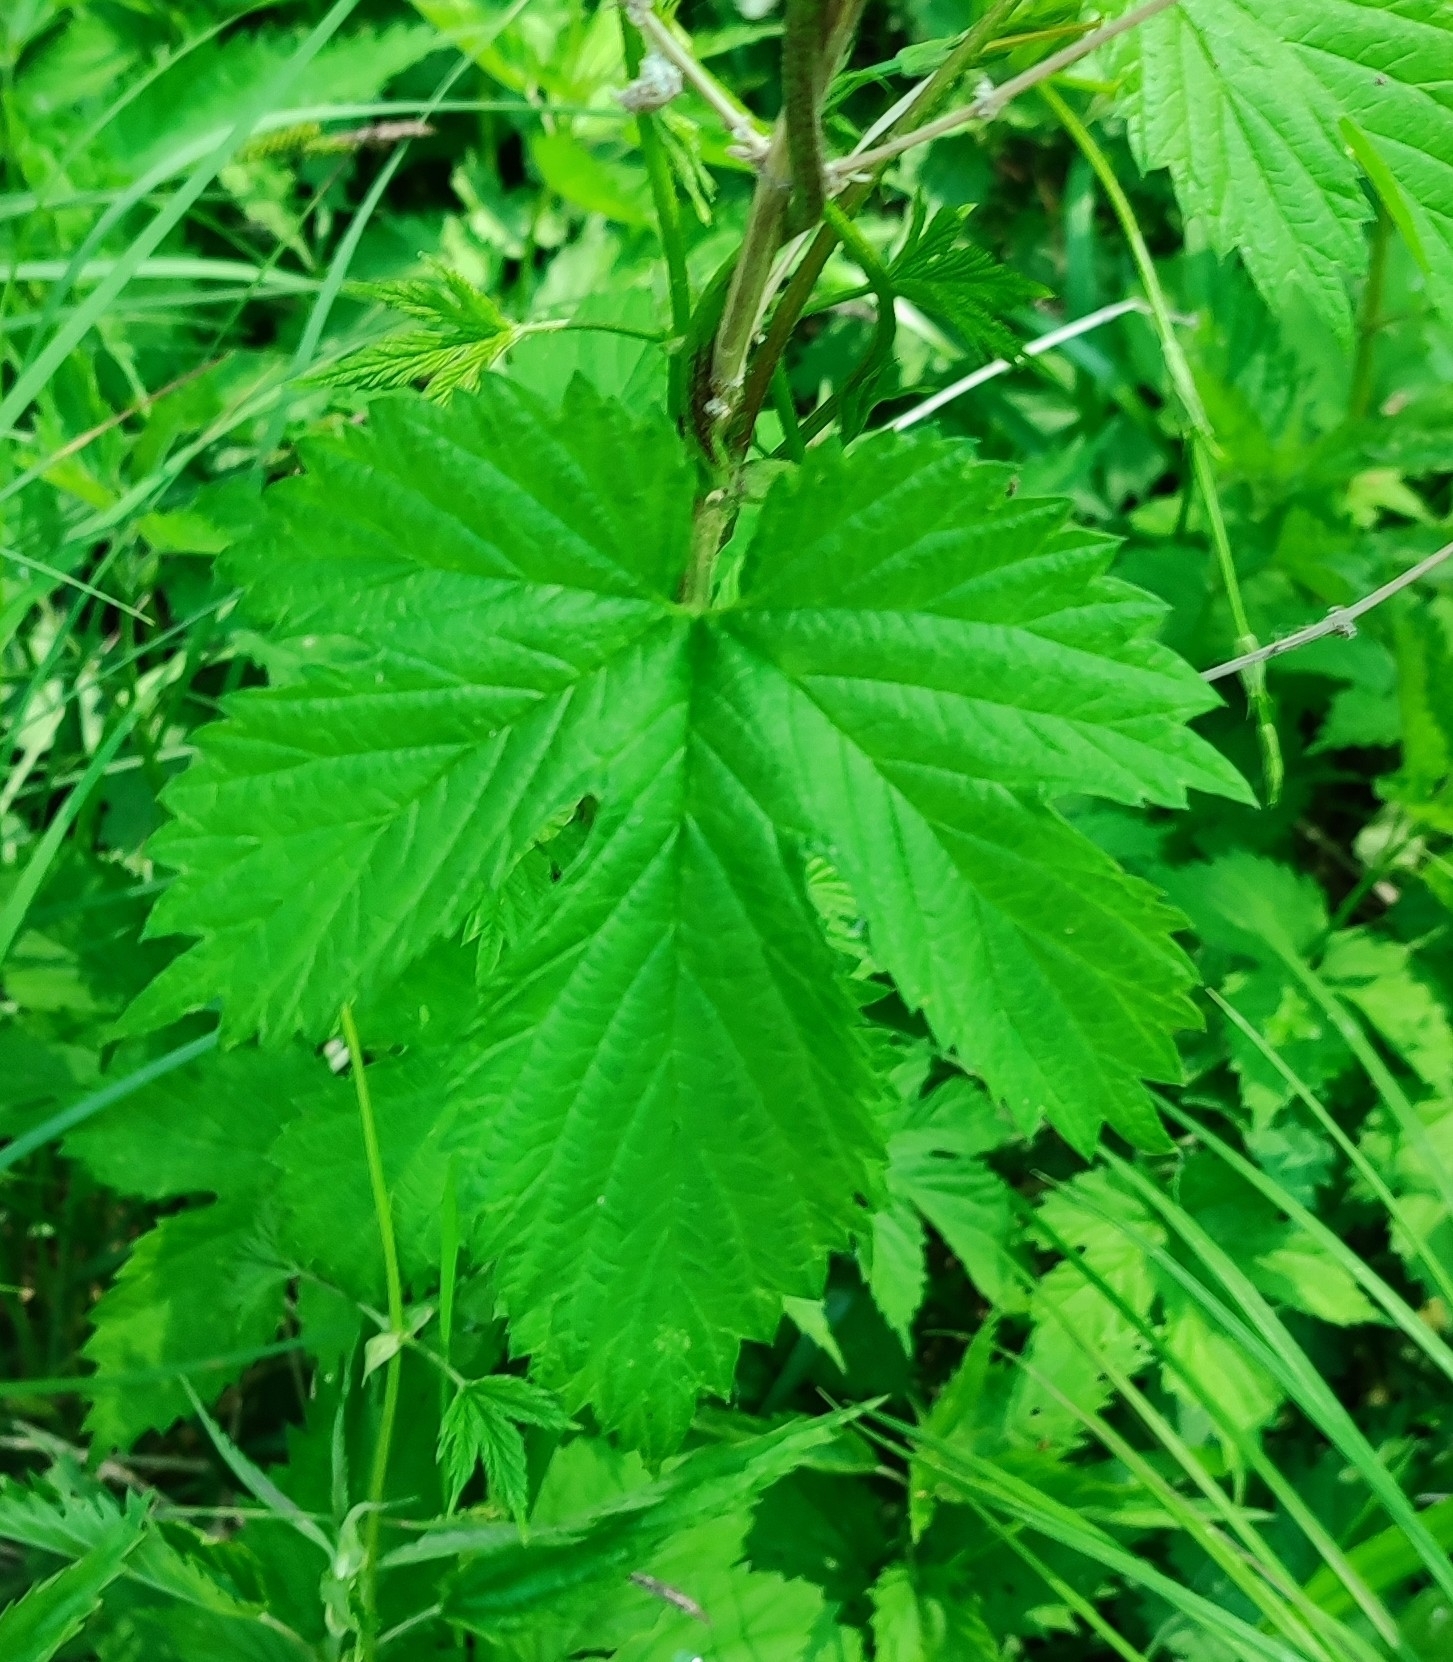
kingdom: Plantae
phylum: Tracheophyta
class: Magnoliopsida
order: Rosales
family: Cannabaceae
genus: Humulus
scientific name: Humulus lupulus
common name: Hop
